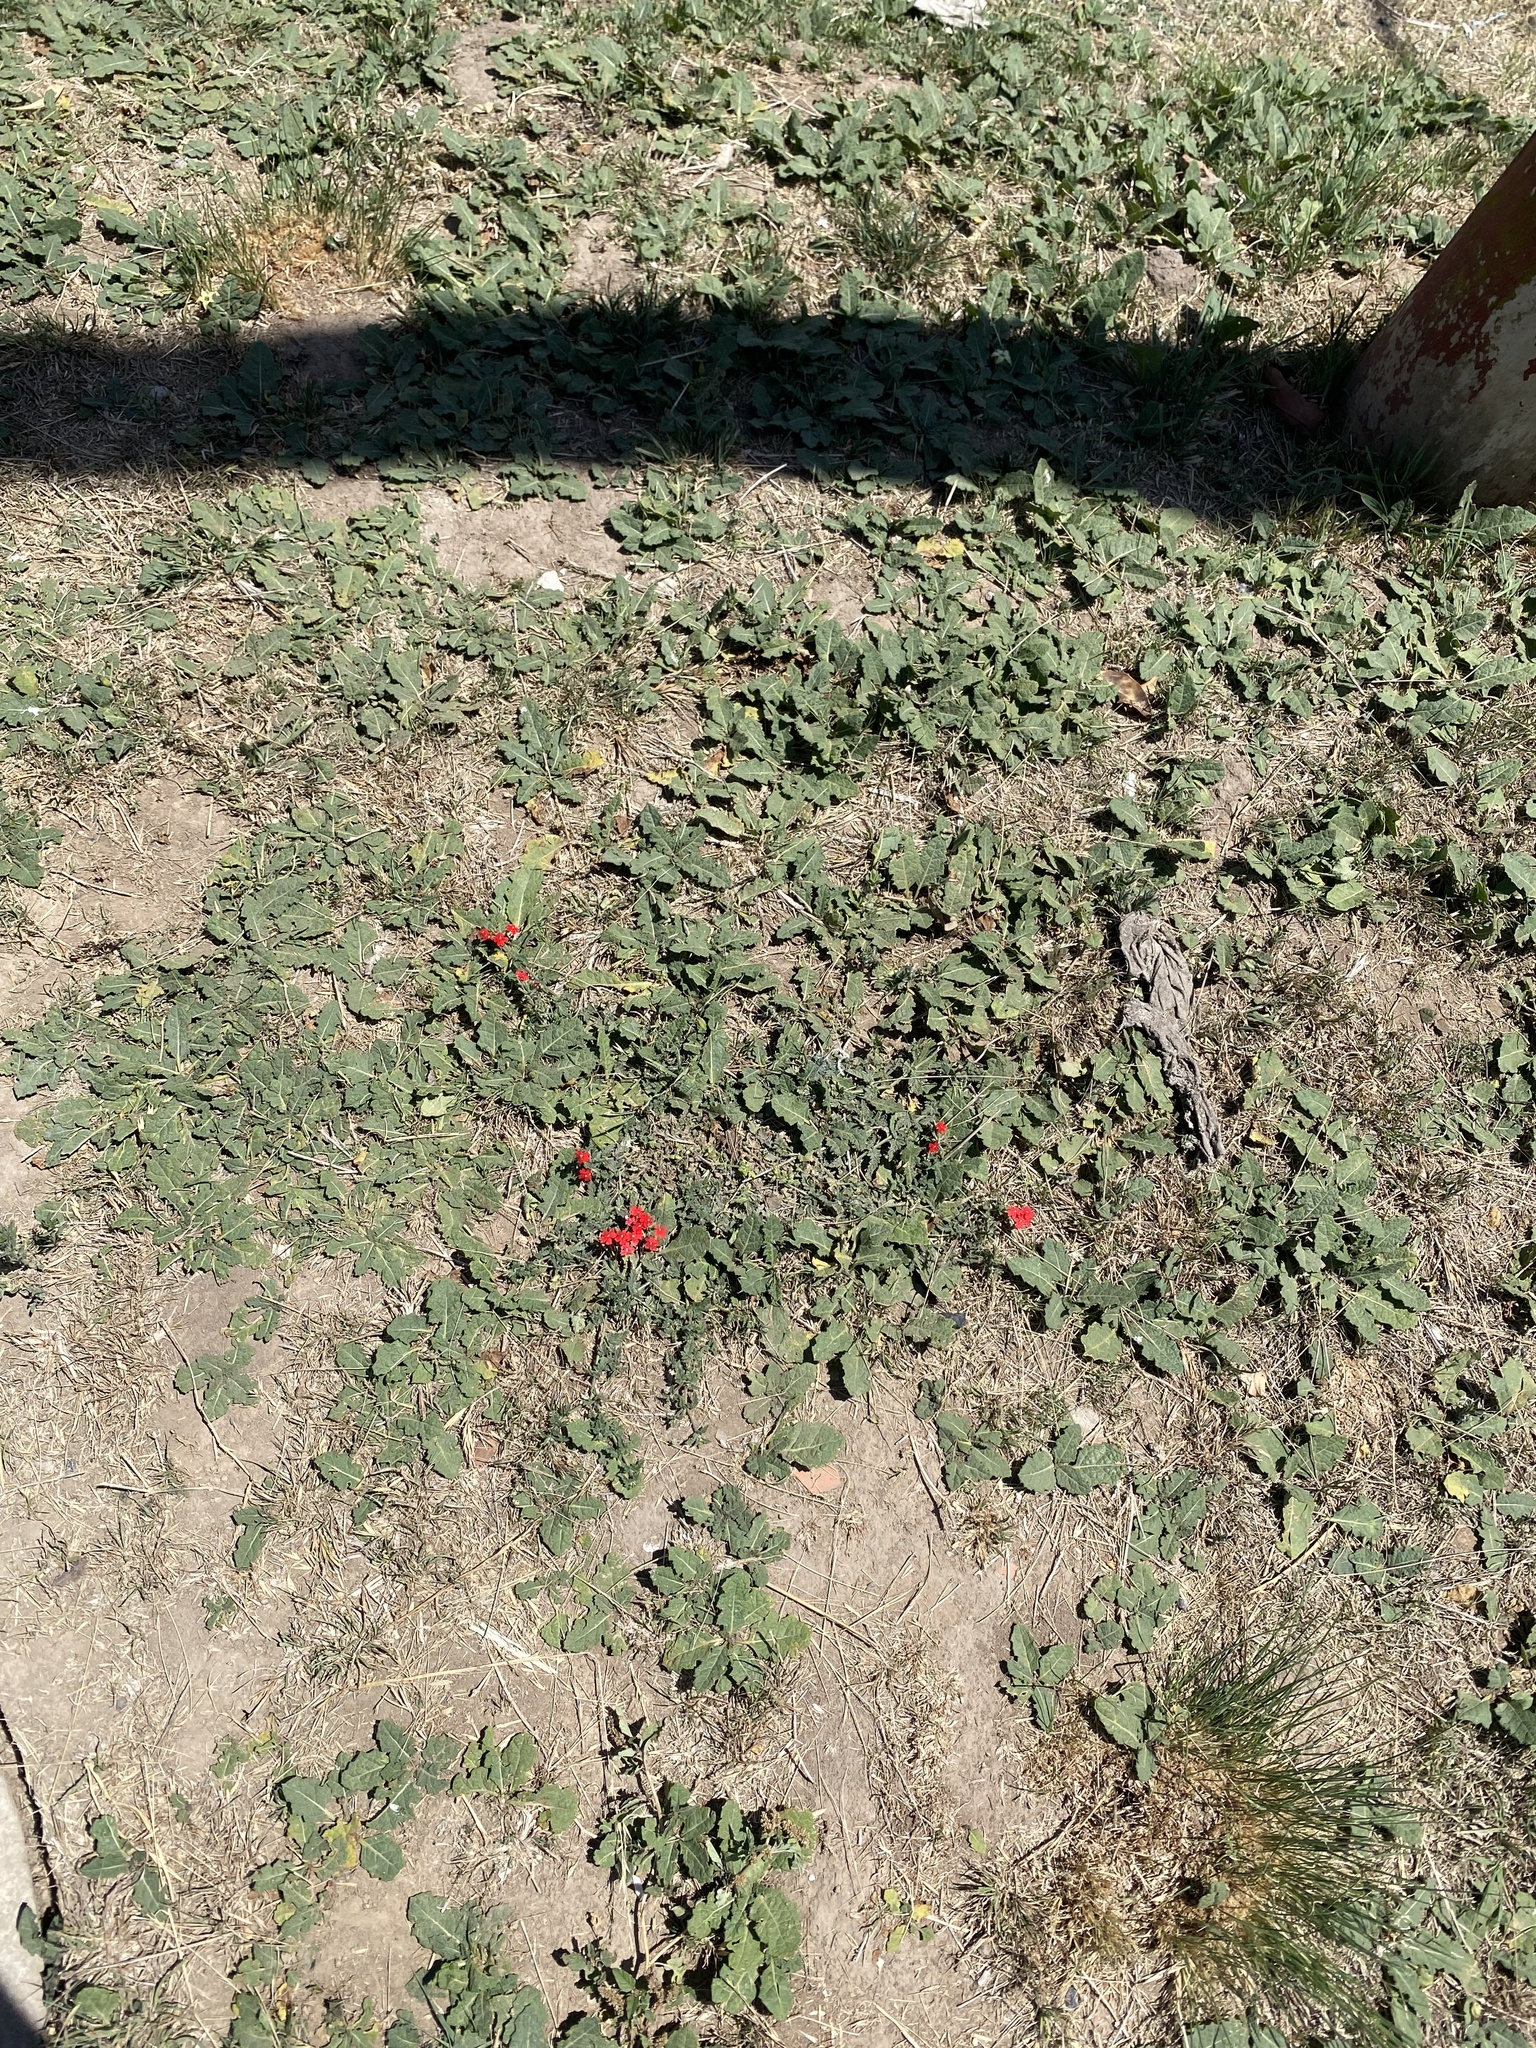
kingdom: Plantae
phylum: Tracheophyta
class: Magnoliopsida
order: Lamiales
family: Verbenaceae
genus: Verbena
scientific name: Verbena tweedieana
